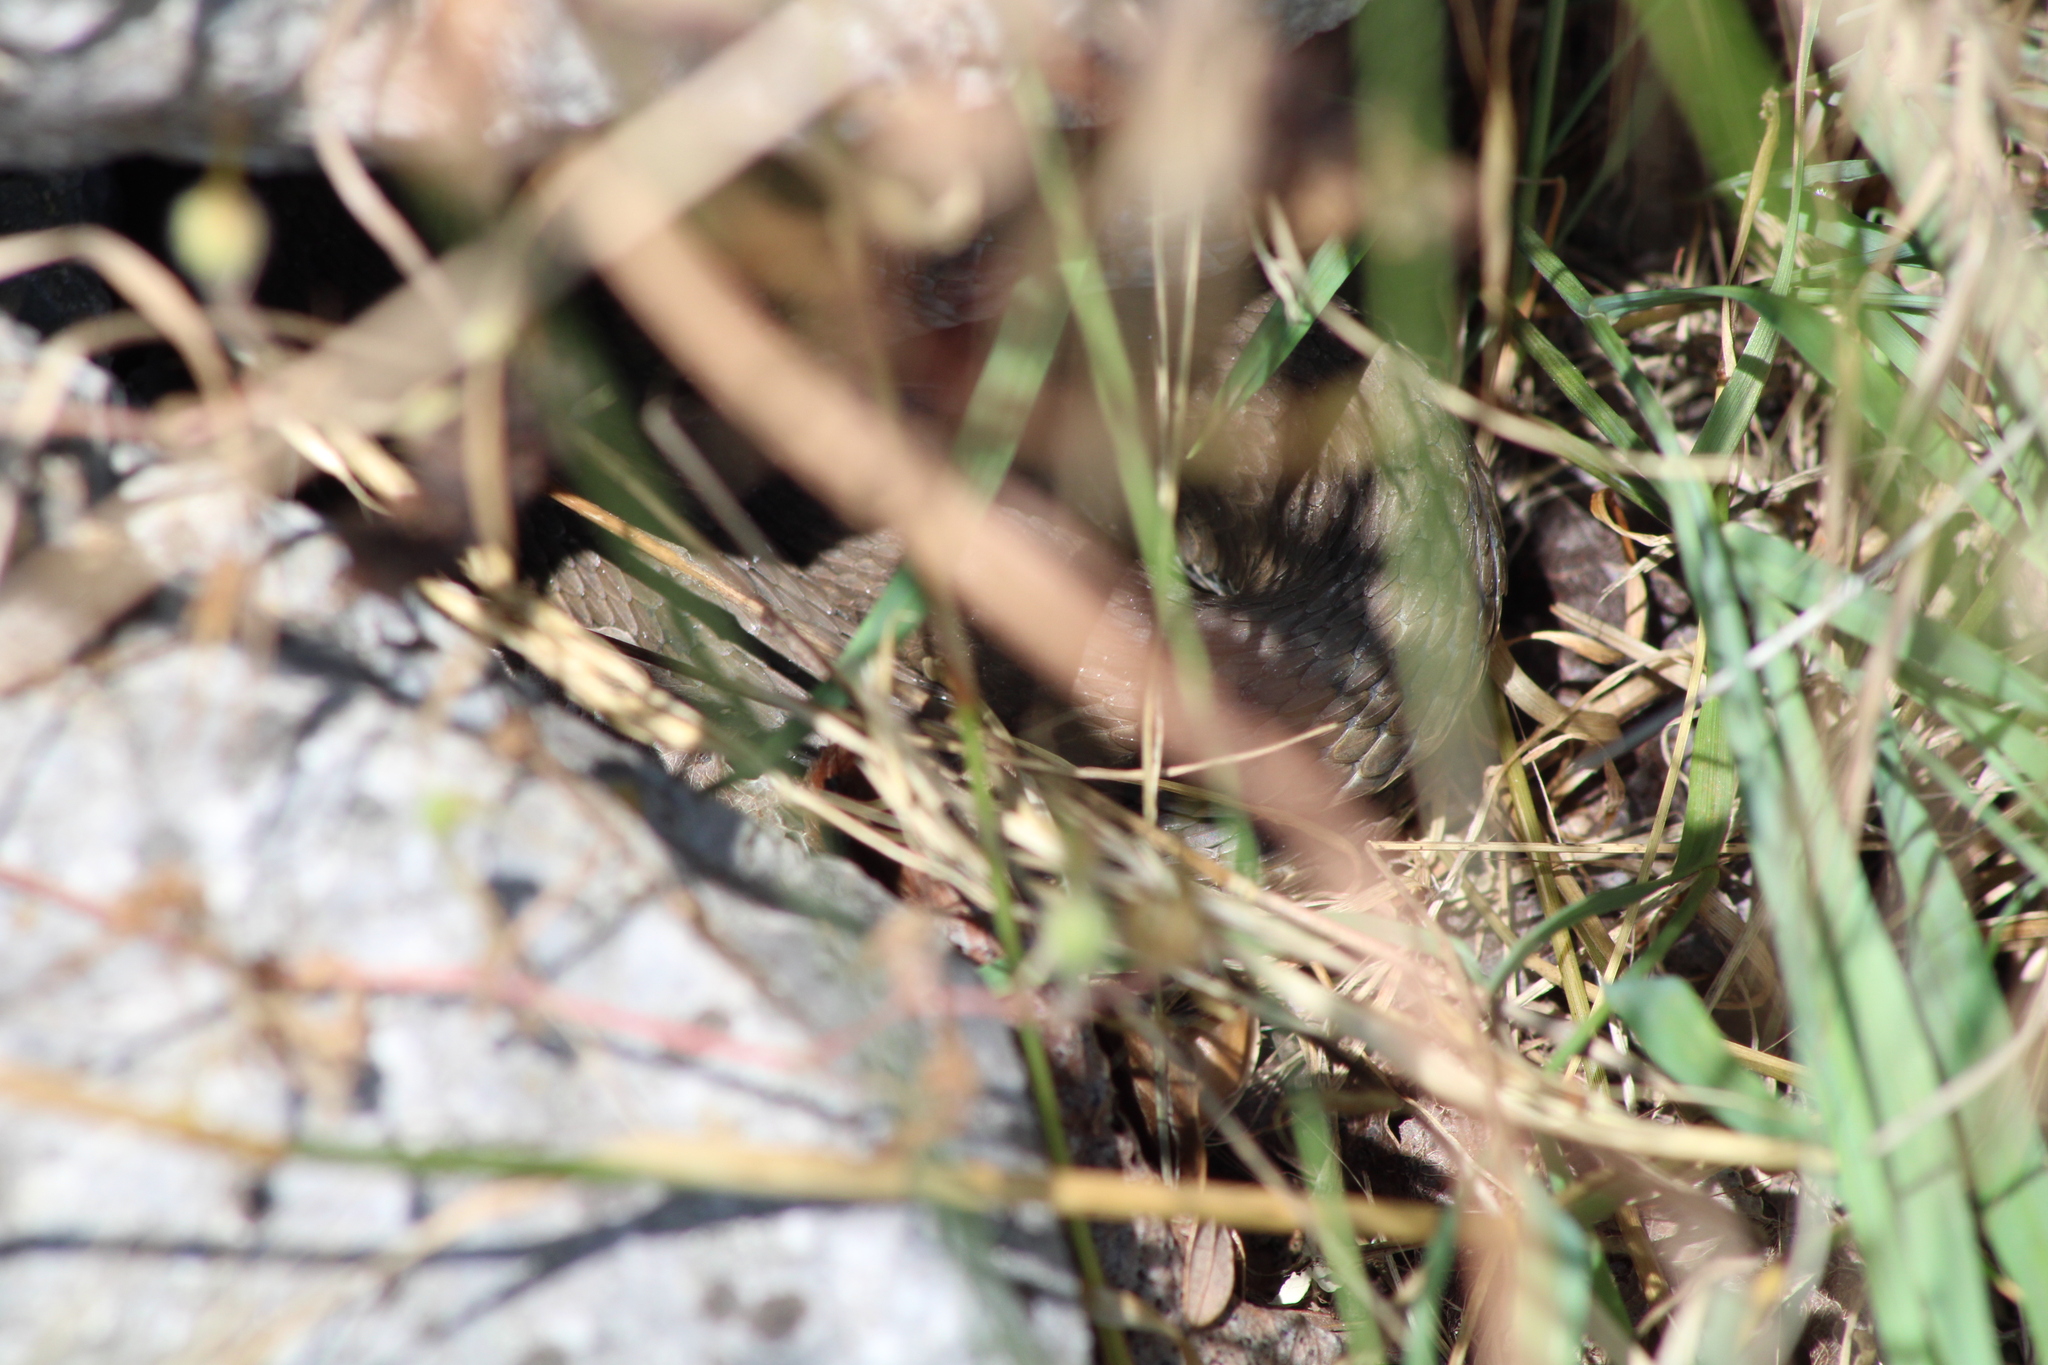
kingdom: Animalia
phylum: Chordata
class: Squamata
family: Colubridae
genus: Natrix
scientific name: Natrix tessellata
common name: Dice snake
